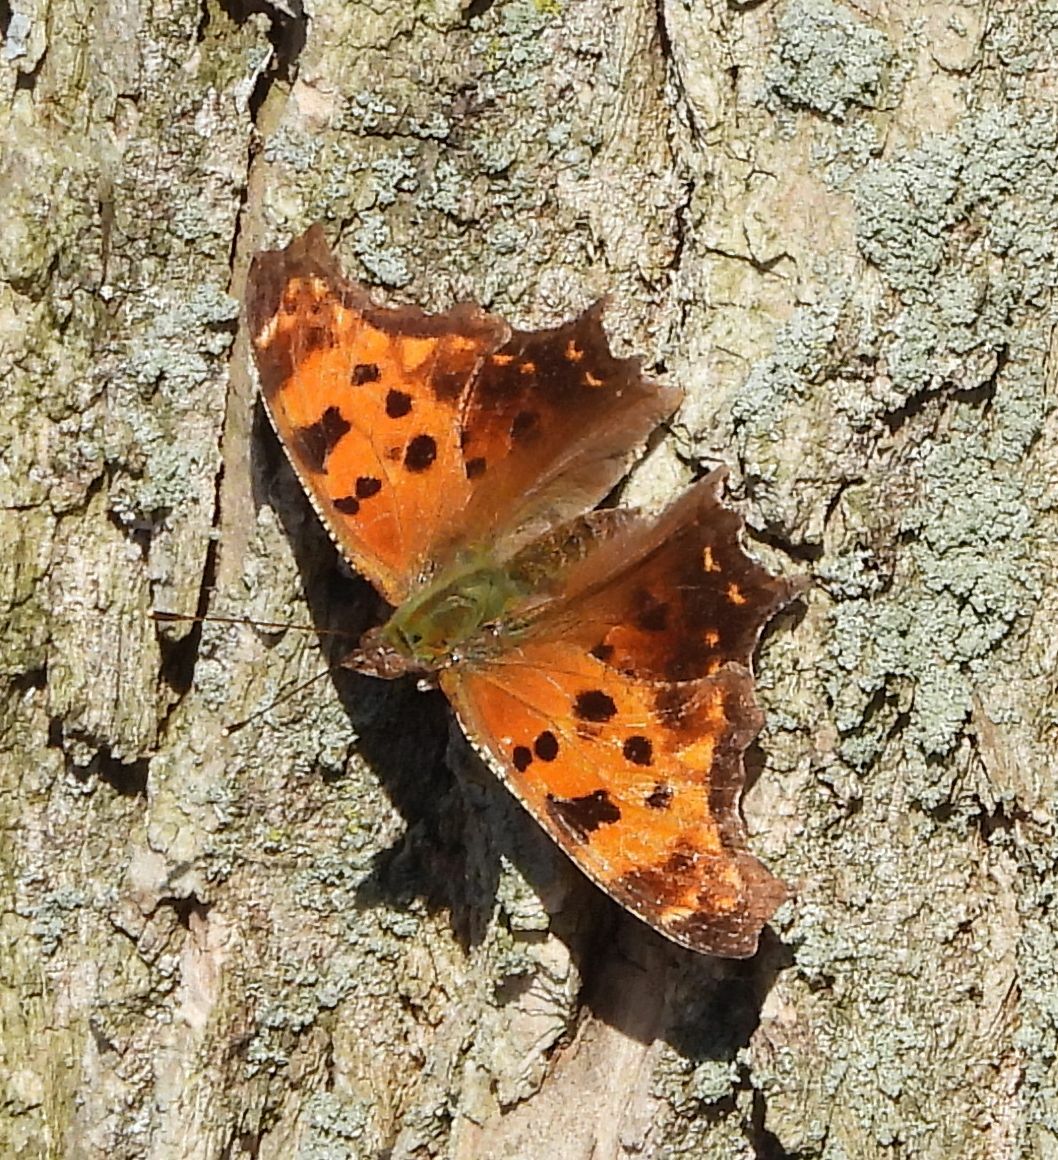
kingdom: Animalia
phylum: Arthropoda
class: Insecta
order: Lepidoptera
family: Nymphalidae
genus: Polygonia
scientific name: Polygonia comma
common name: Eastern comma
